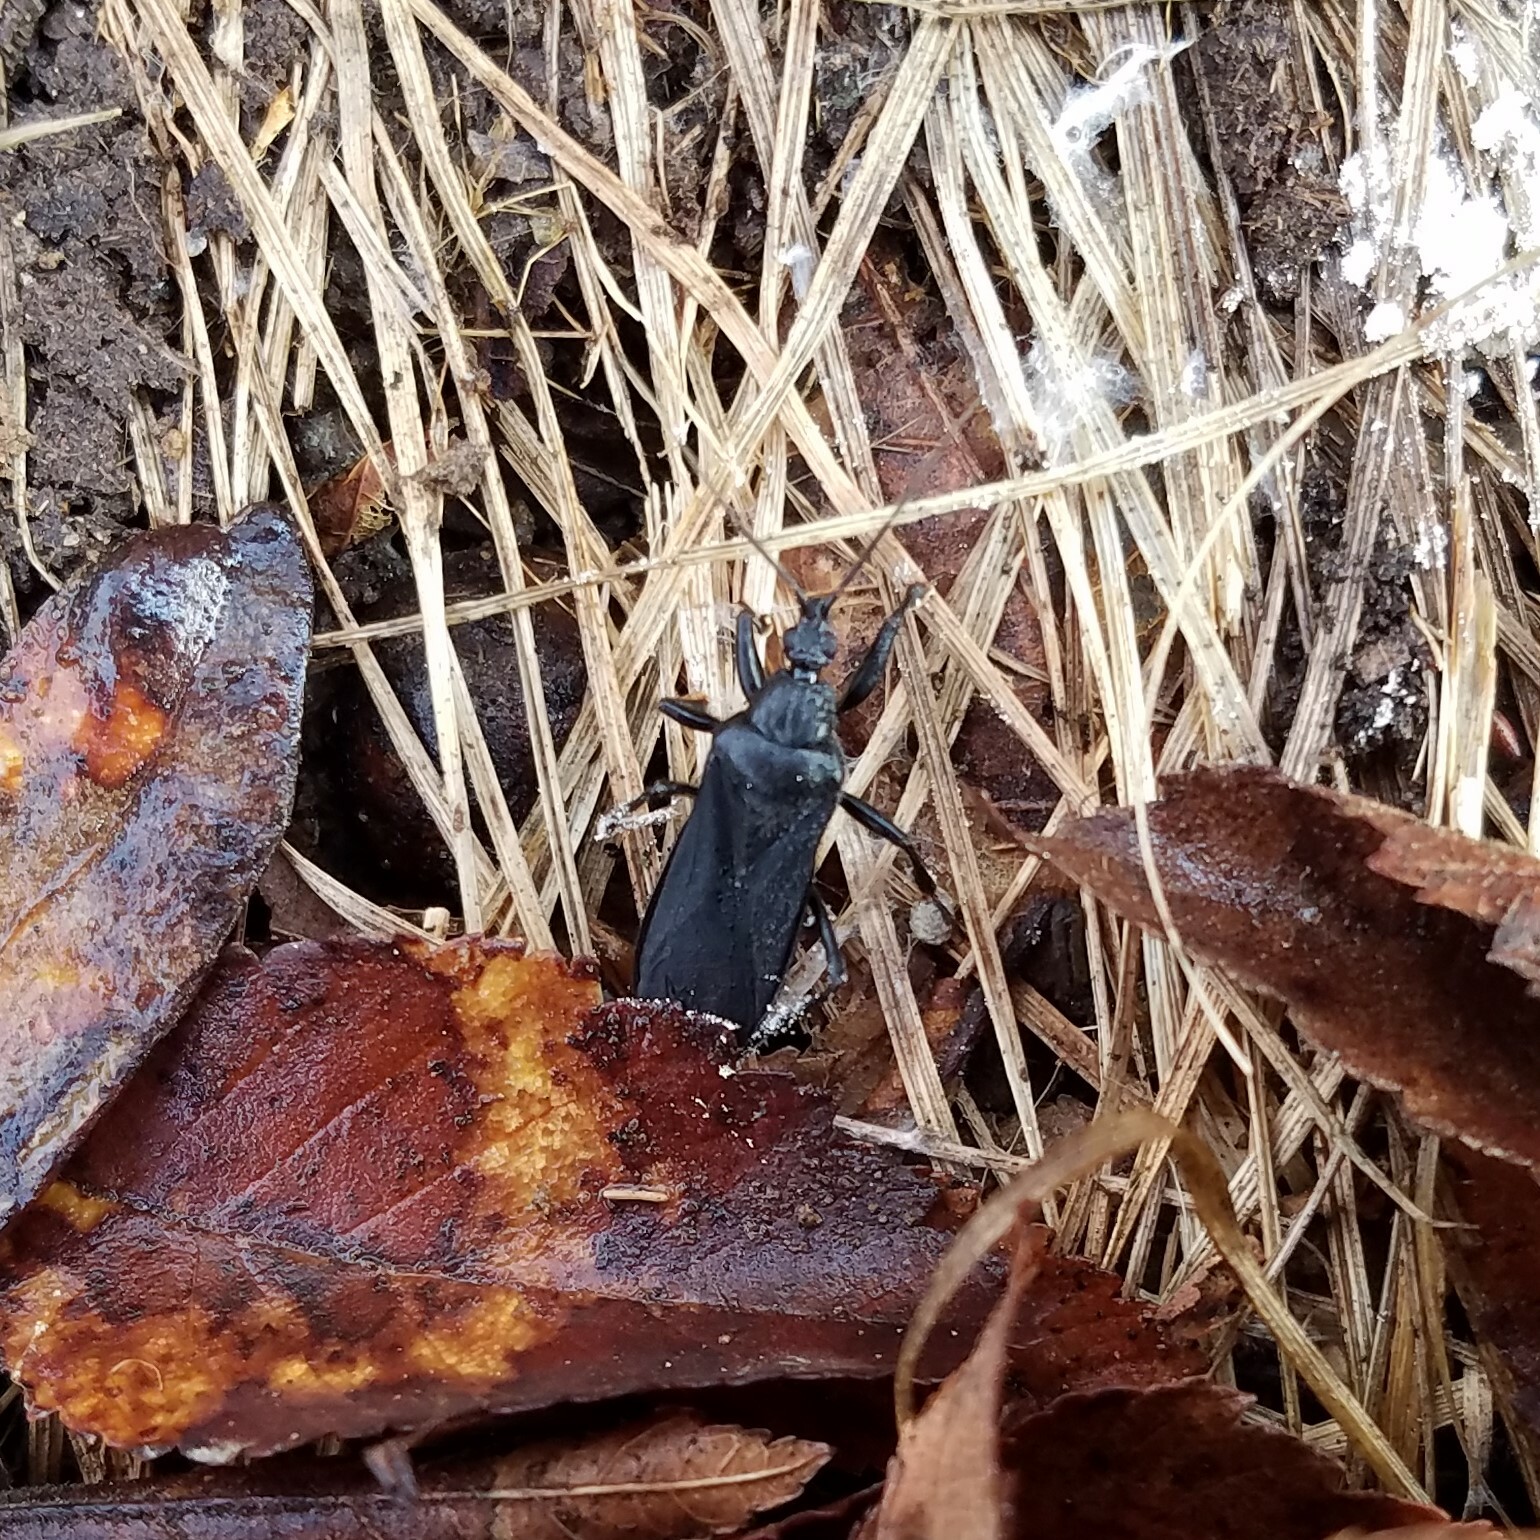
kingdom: Animalia
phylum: Arthropoda
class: Insecta
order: Hemiptera
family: Reduviidae
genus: Melanolestes
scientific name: Melanolestes picipes
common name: Assassin bug
